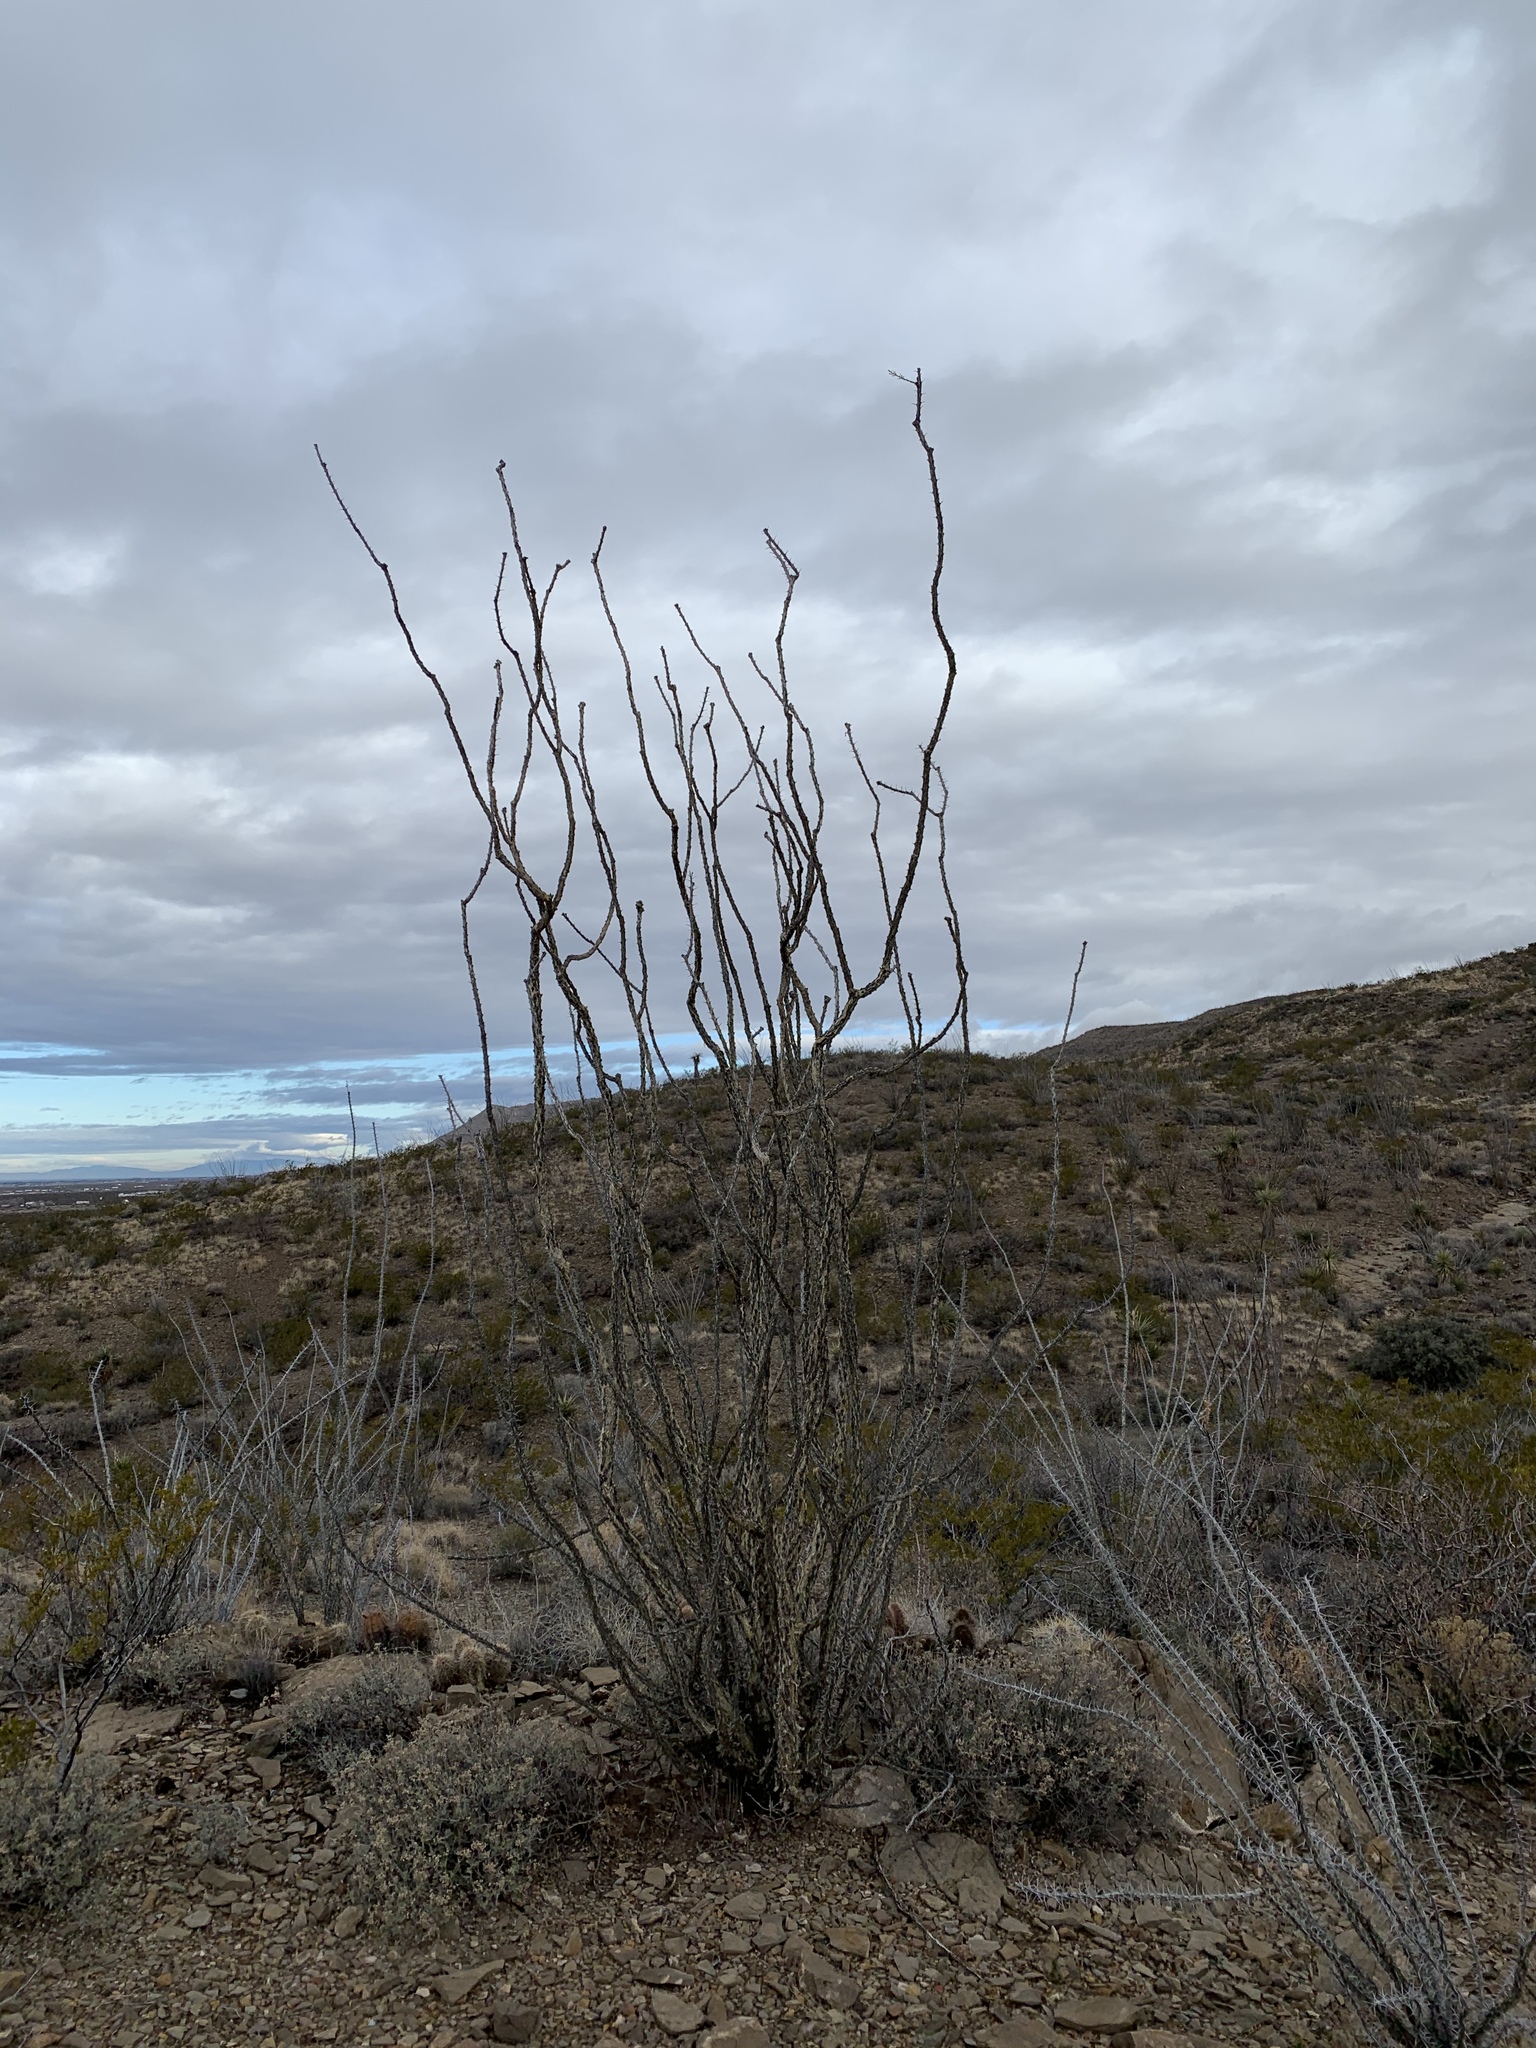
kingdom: Plantae
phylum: Tracheophyta
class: Magnoliopsida
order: Ericales
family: Fouquieriaceae
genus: Fouquieria
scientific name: Fouquieria splendens
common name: Vine-cactus
